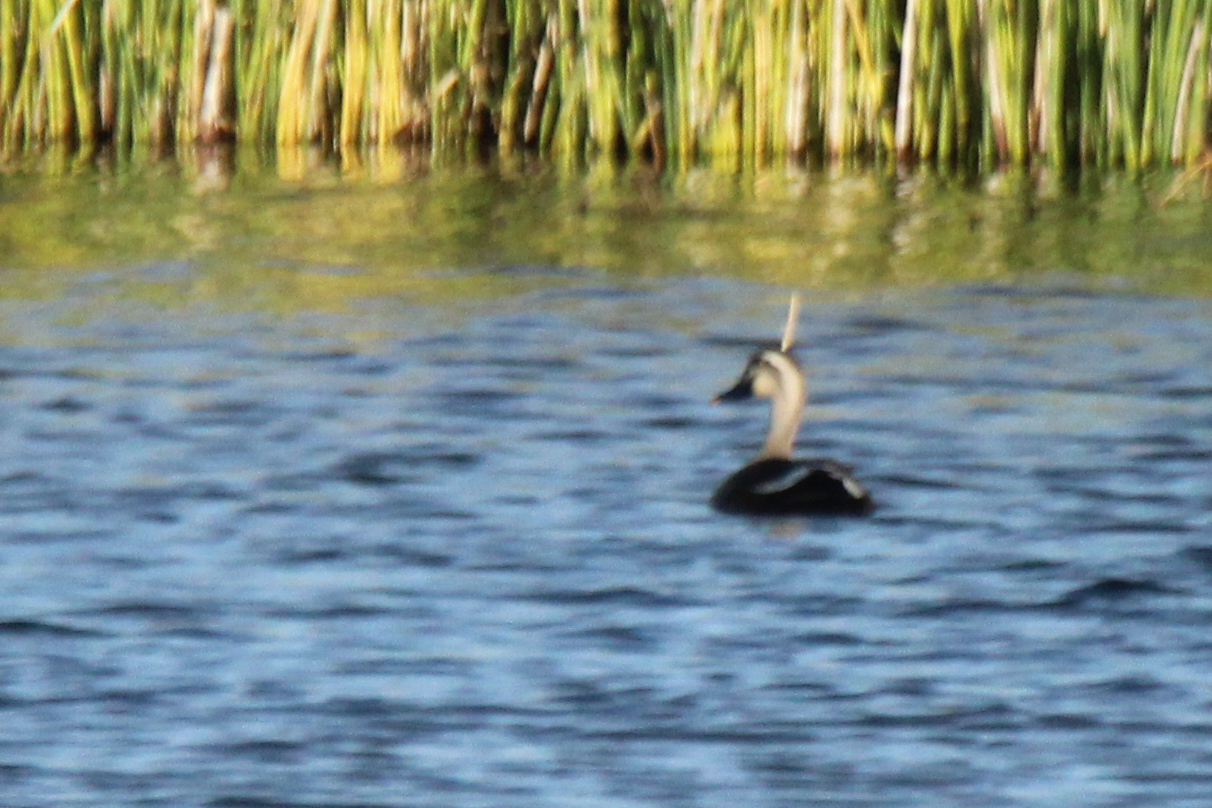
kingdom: Animalia
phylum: Chordata
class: Aves
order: Anseriformes
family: Anatidae
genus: Anas
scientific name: Anas zonorhyncha
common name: Eastern spot-billed duck
